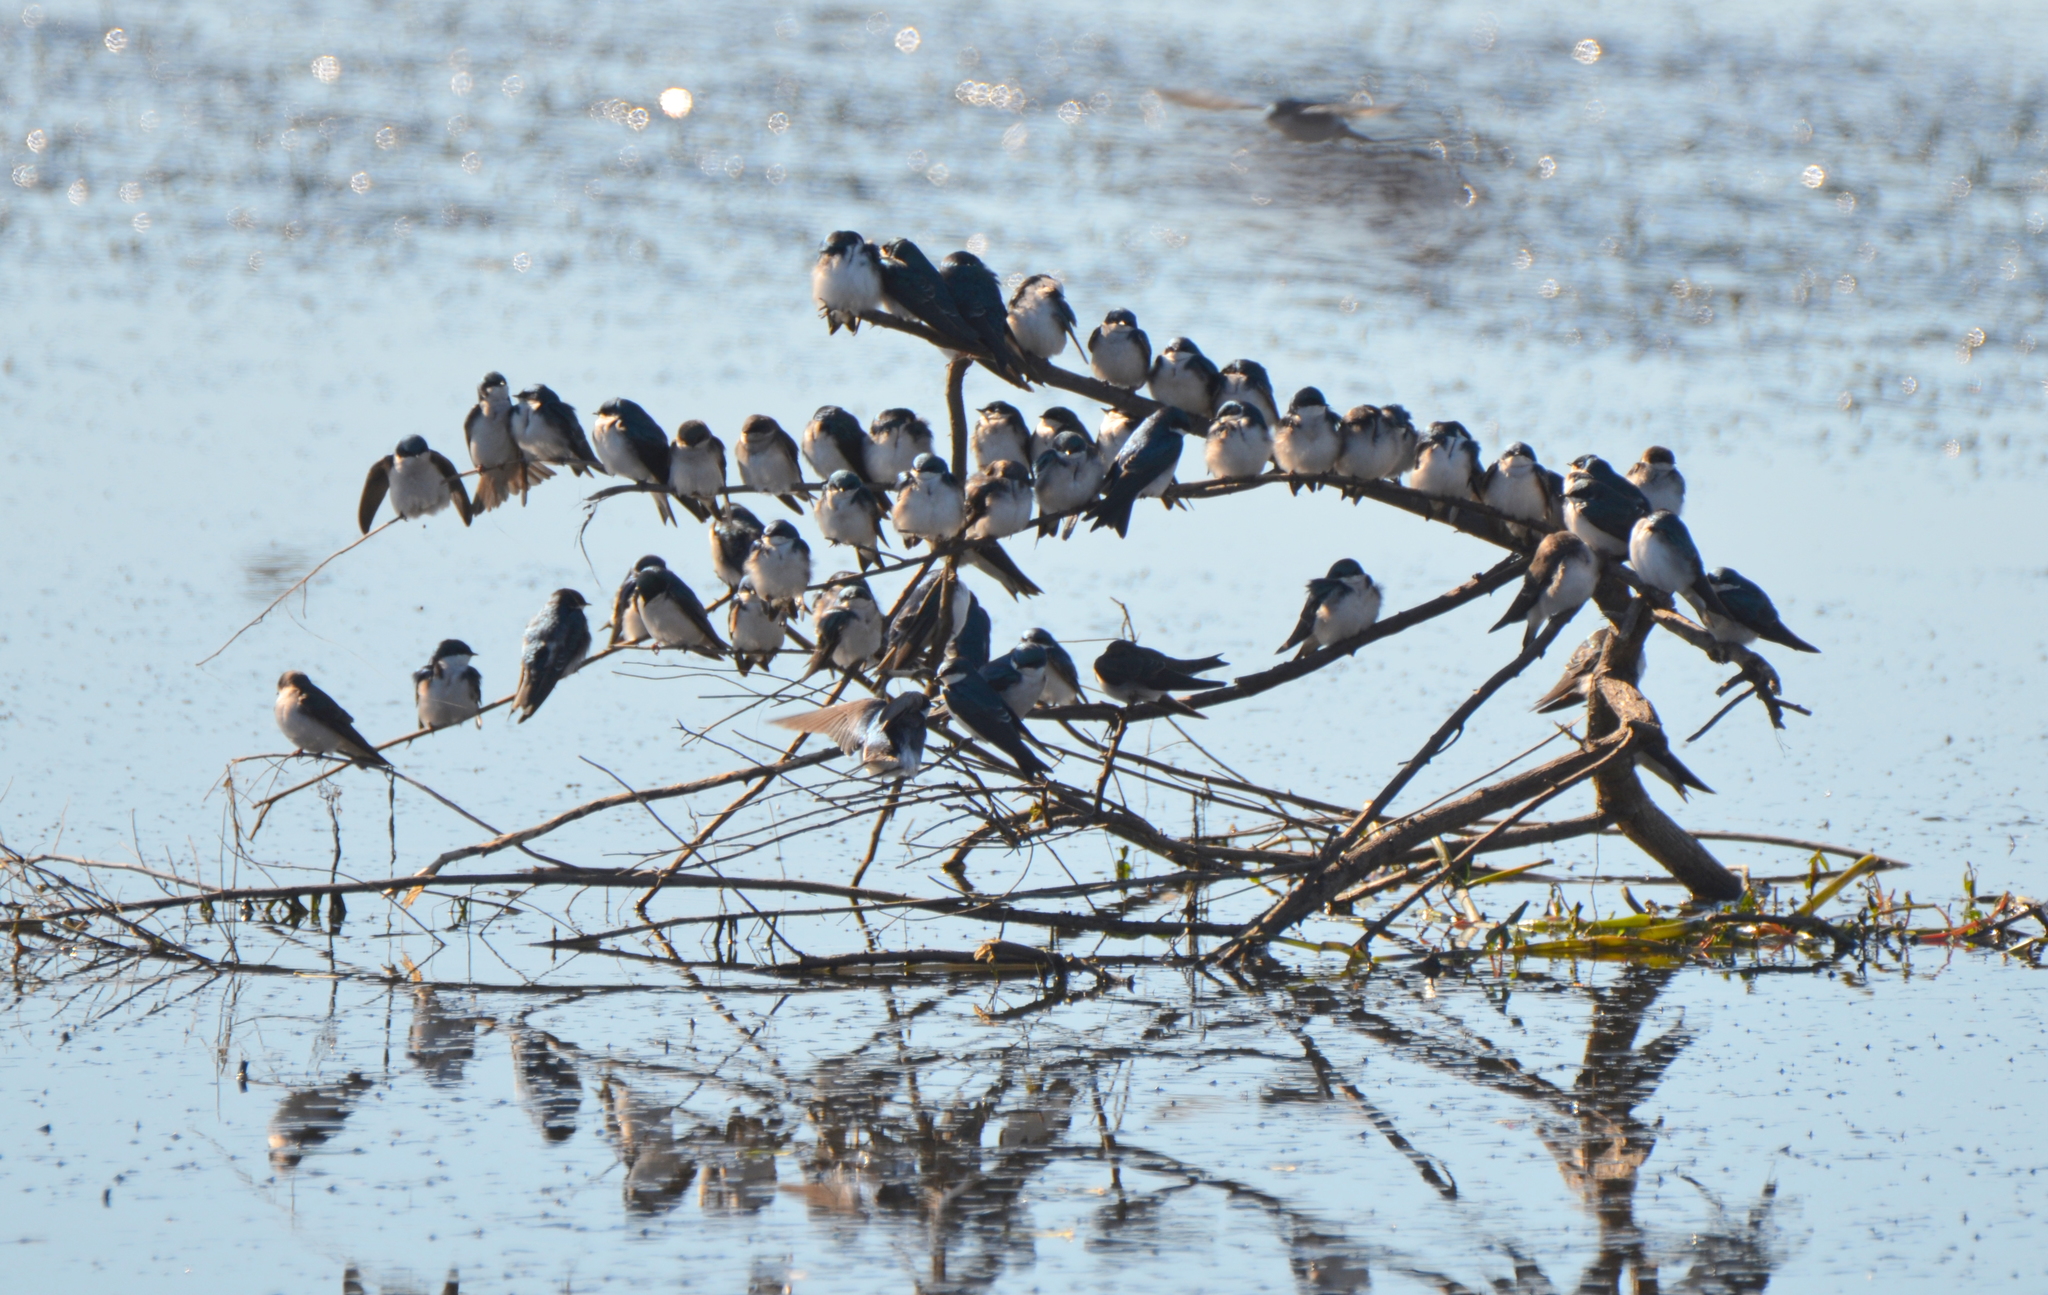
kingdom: Animalia
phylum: Chordata
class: Aves
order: Passeriformes
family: Hirundinidae
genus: Tachycineta
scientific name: Tachycineta bicolor
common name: Tree swallow
